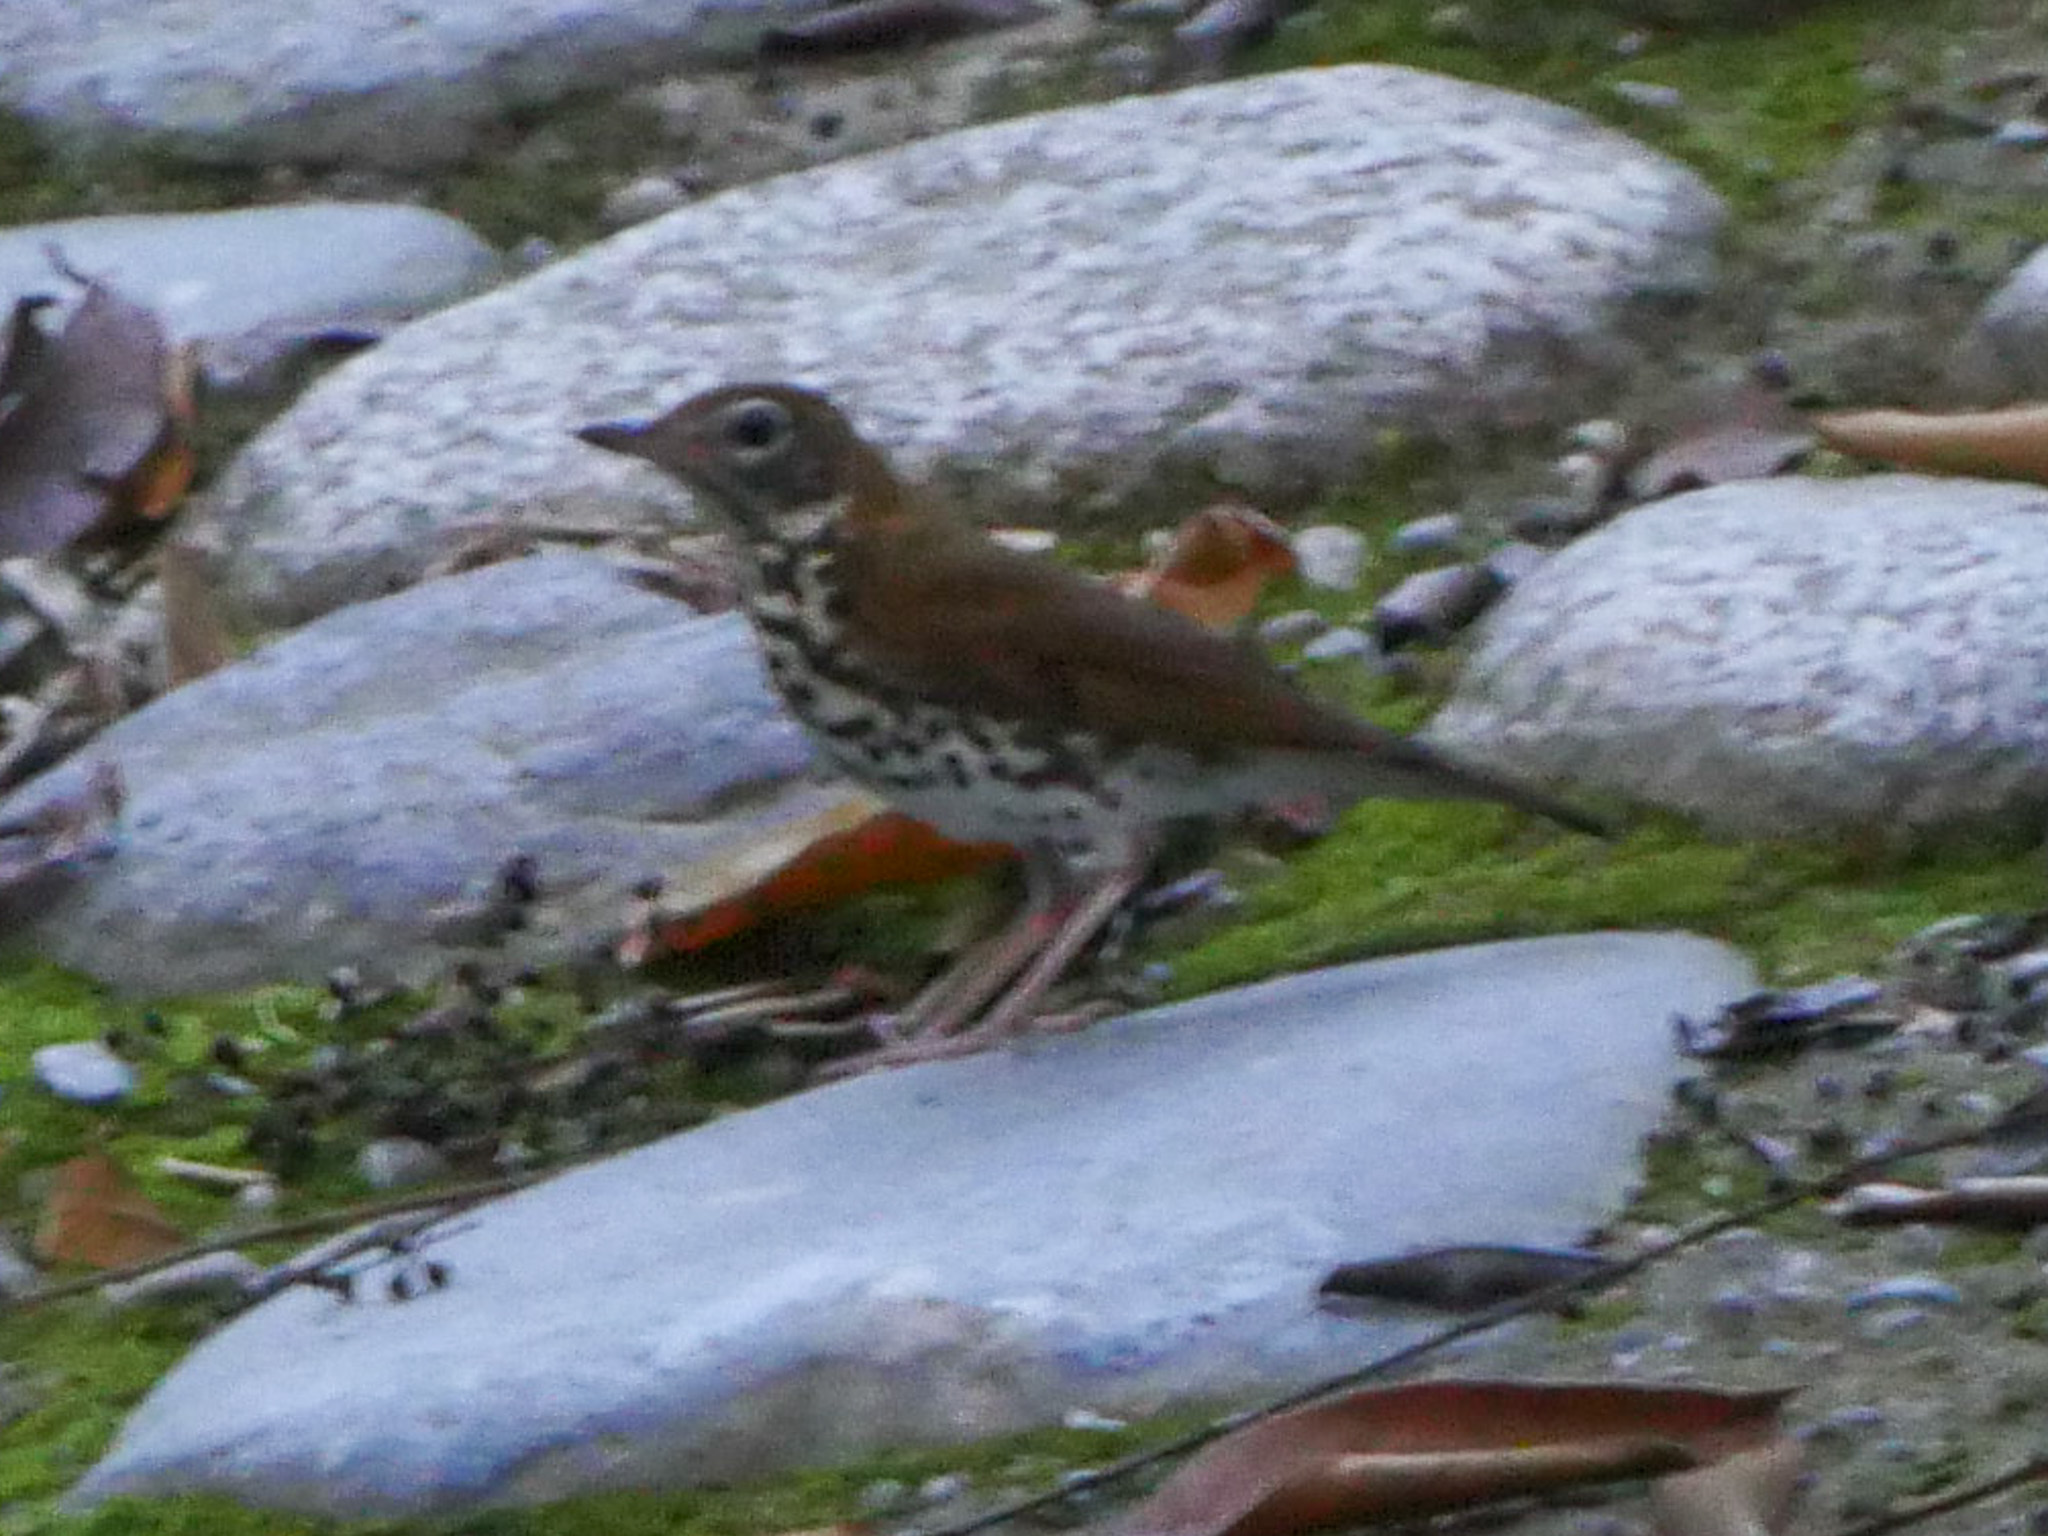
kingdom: Animalia
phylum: Chordata
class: Aves
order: Passeriformes
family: Turdidae
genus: Hylocichla
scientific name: Hylocichla mustelina
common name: Wood thrush
